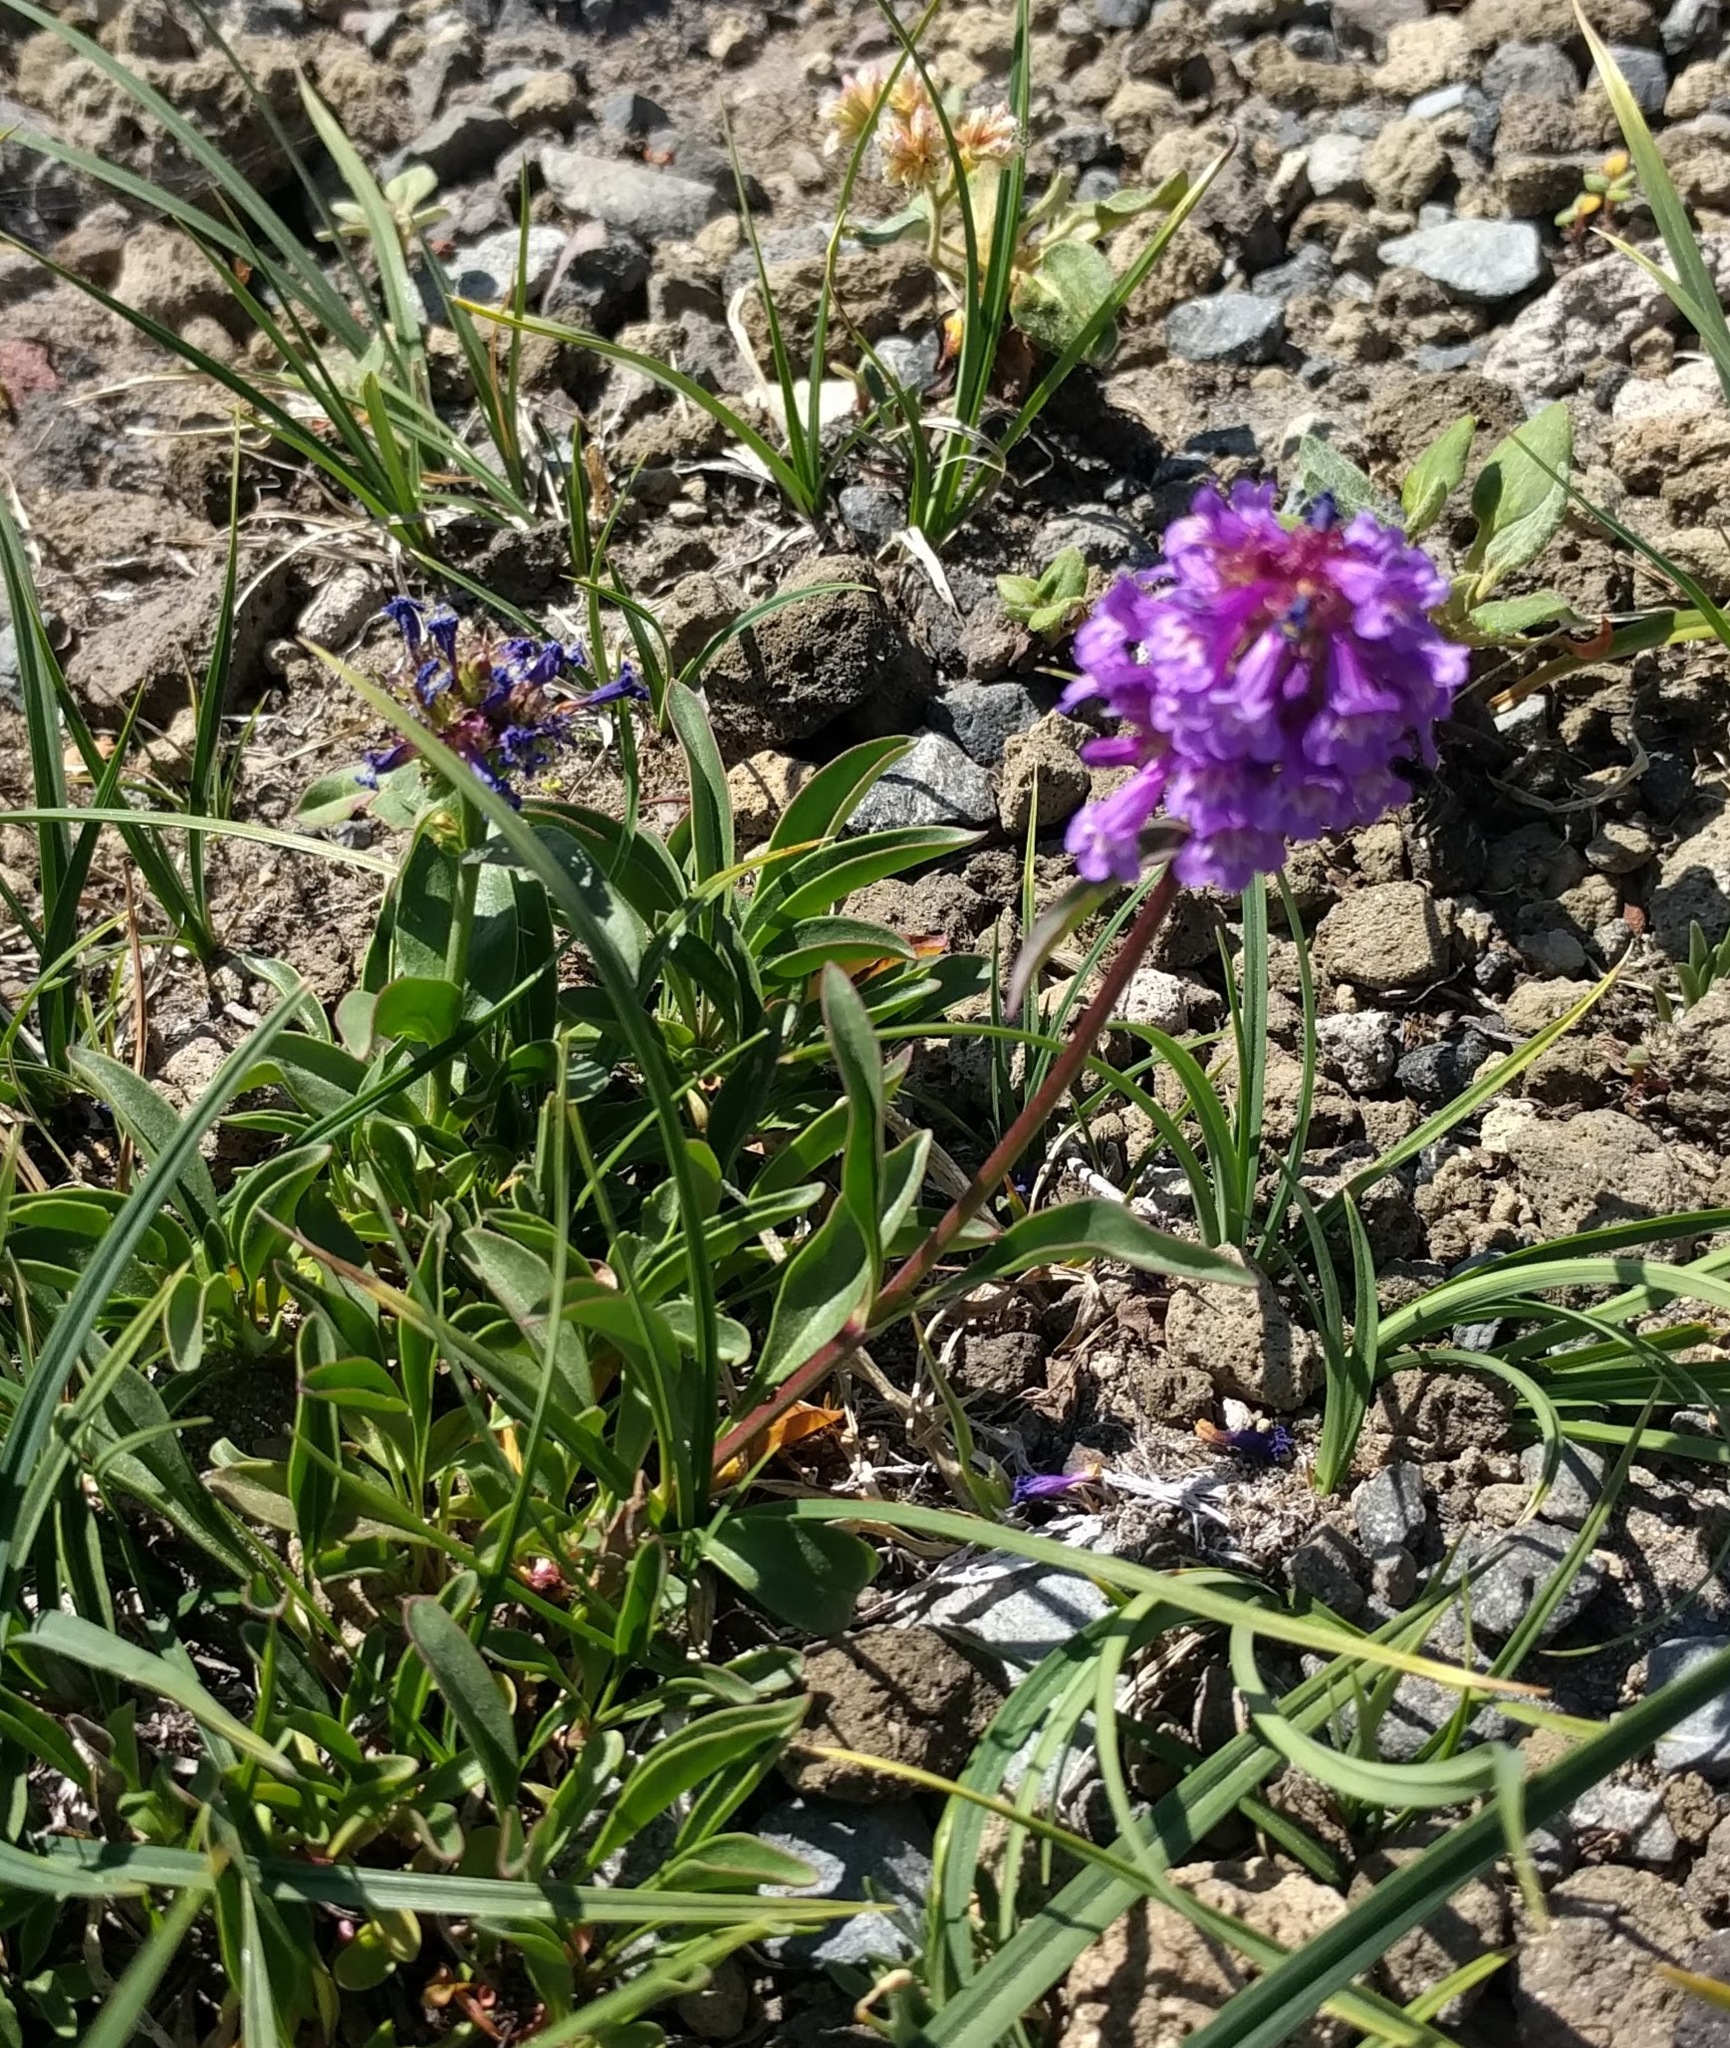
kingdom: Plantae
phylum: Tracheophyta
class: Magnoliopsida
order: Lamiales
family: Plantaginaceae
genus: Penstemon
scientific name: Penstemon procerus
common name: Small-flower penstemon
